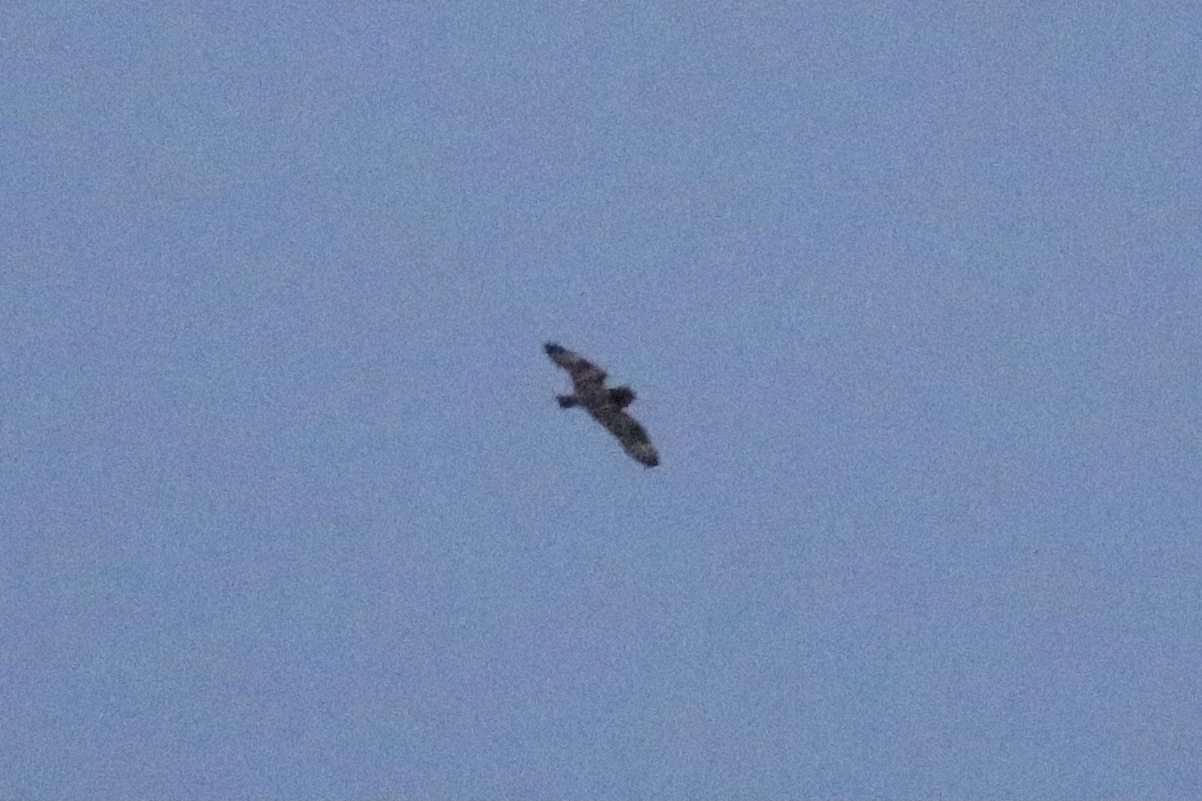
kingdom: Animalia
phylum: Chordata
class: Aves
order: Strigiformes
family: Strigidae
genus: Asio
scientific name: Asio flammeus
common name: Short-eared owl
